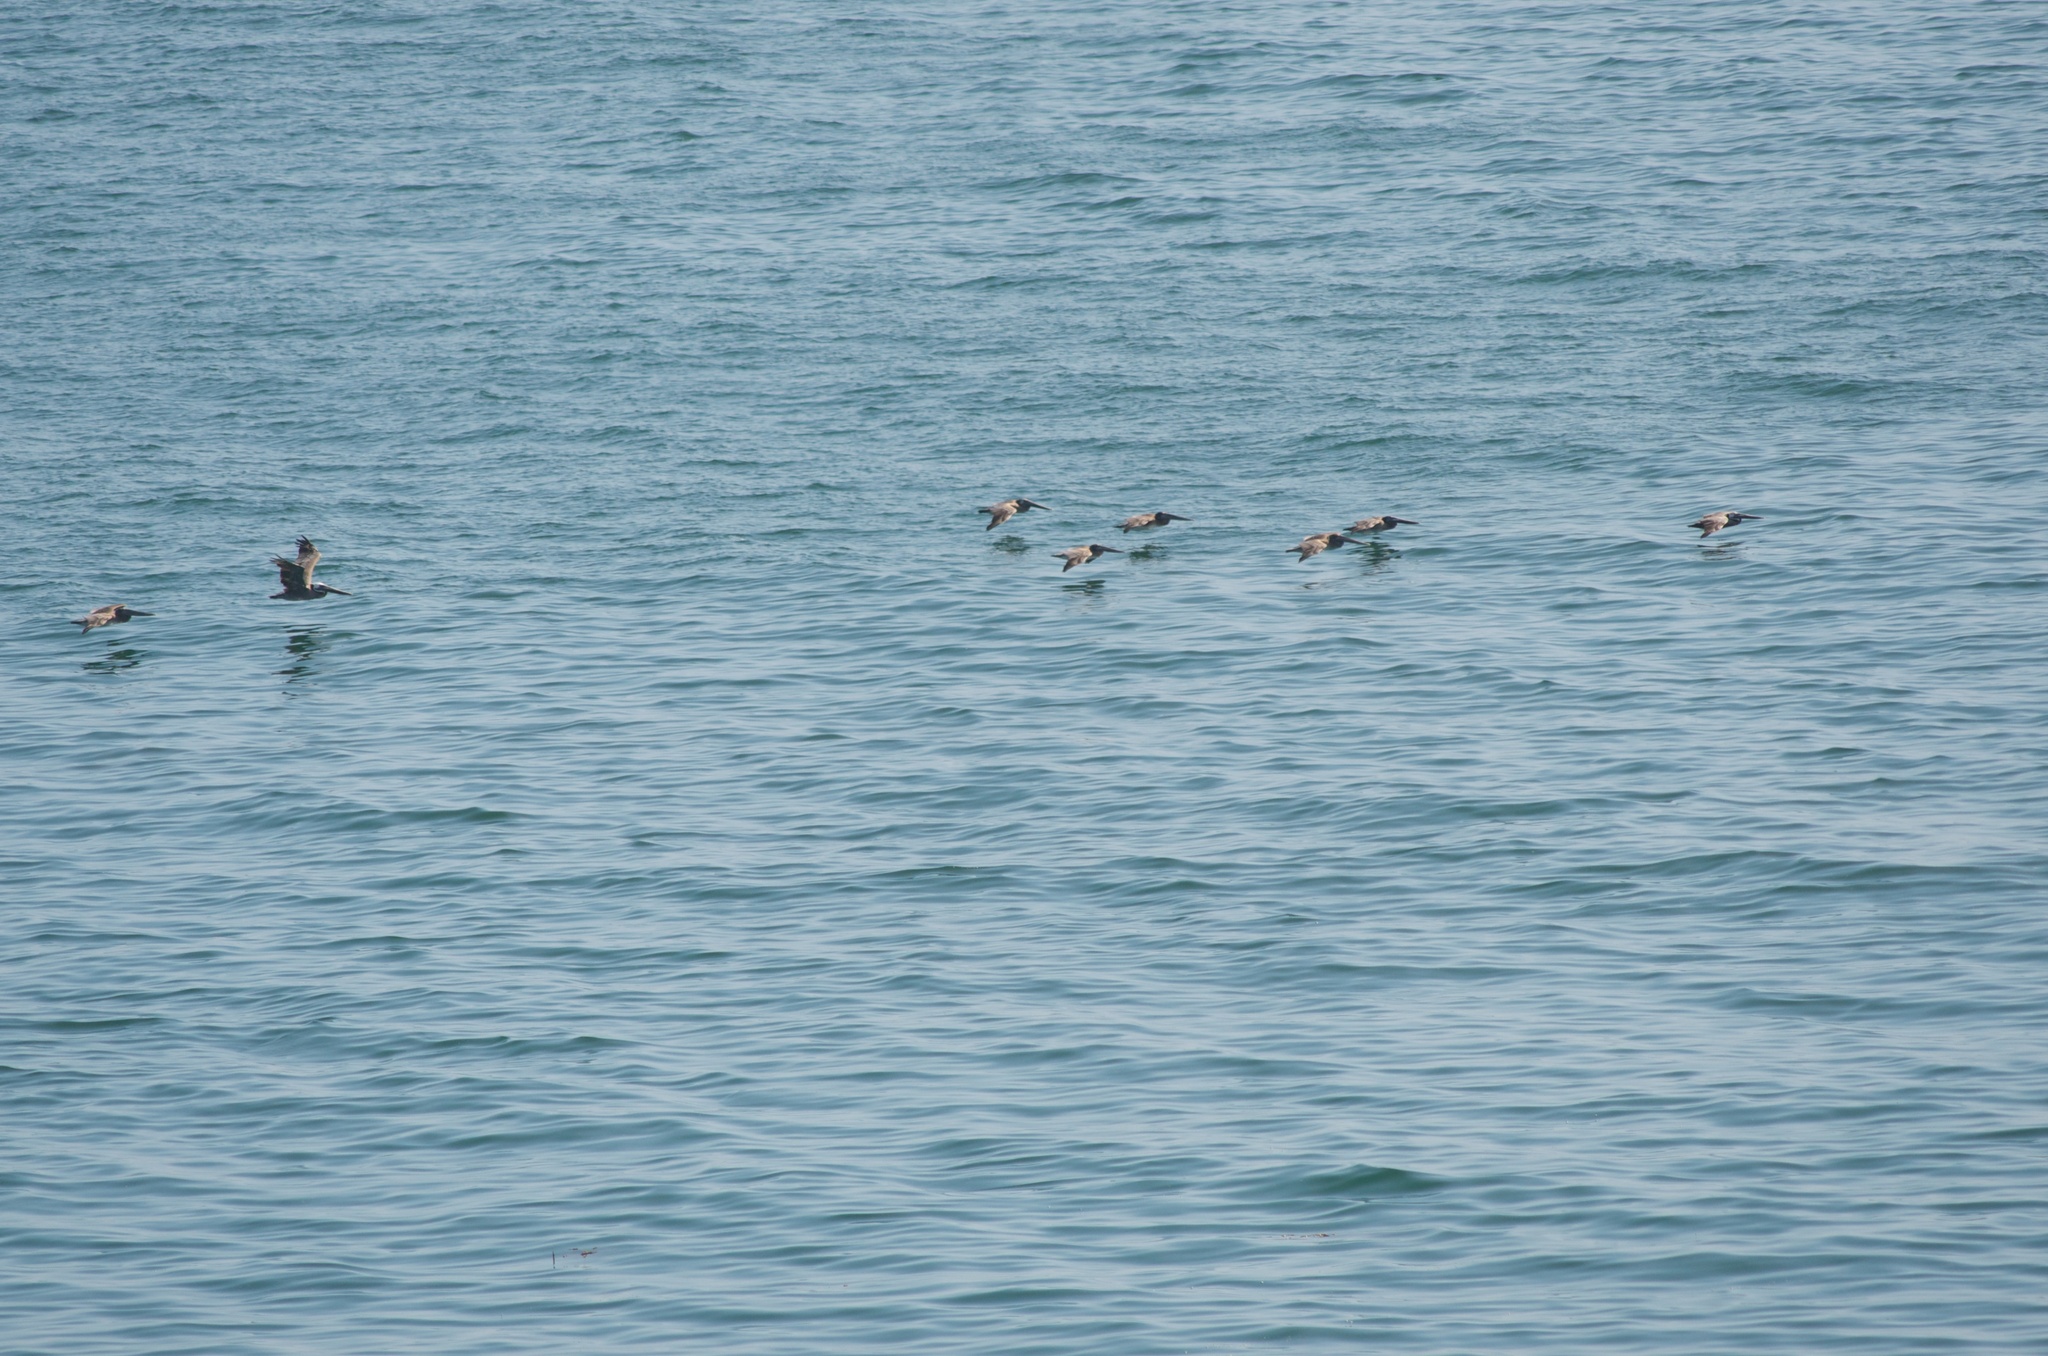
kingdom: Animalia
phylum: Chordata
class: Aves
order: Pelecaniformes
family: Pelecanidae
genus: Pelecanus
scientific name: Pelecanus occidentalis
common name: Brown pelican
